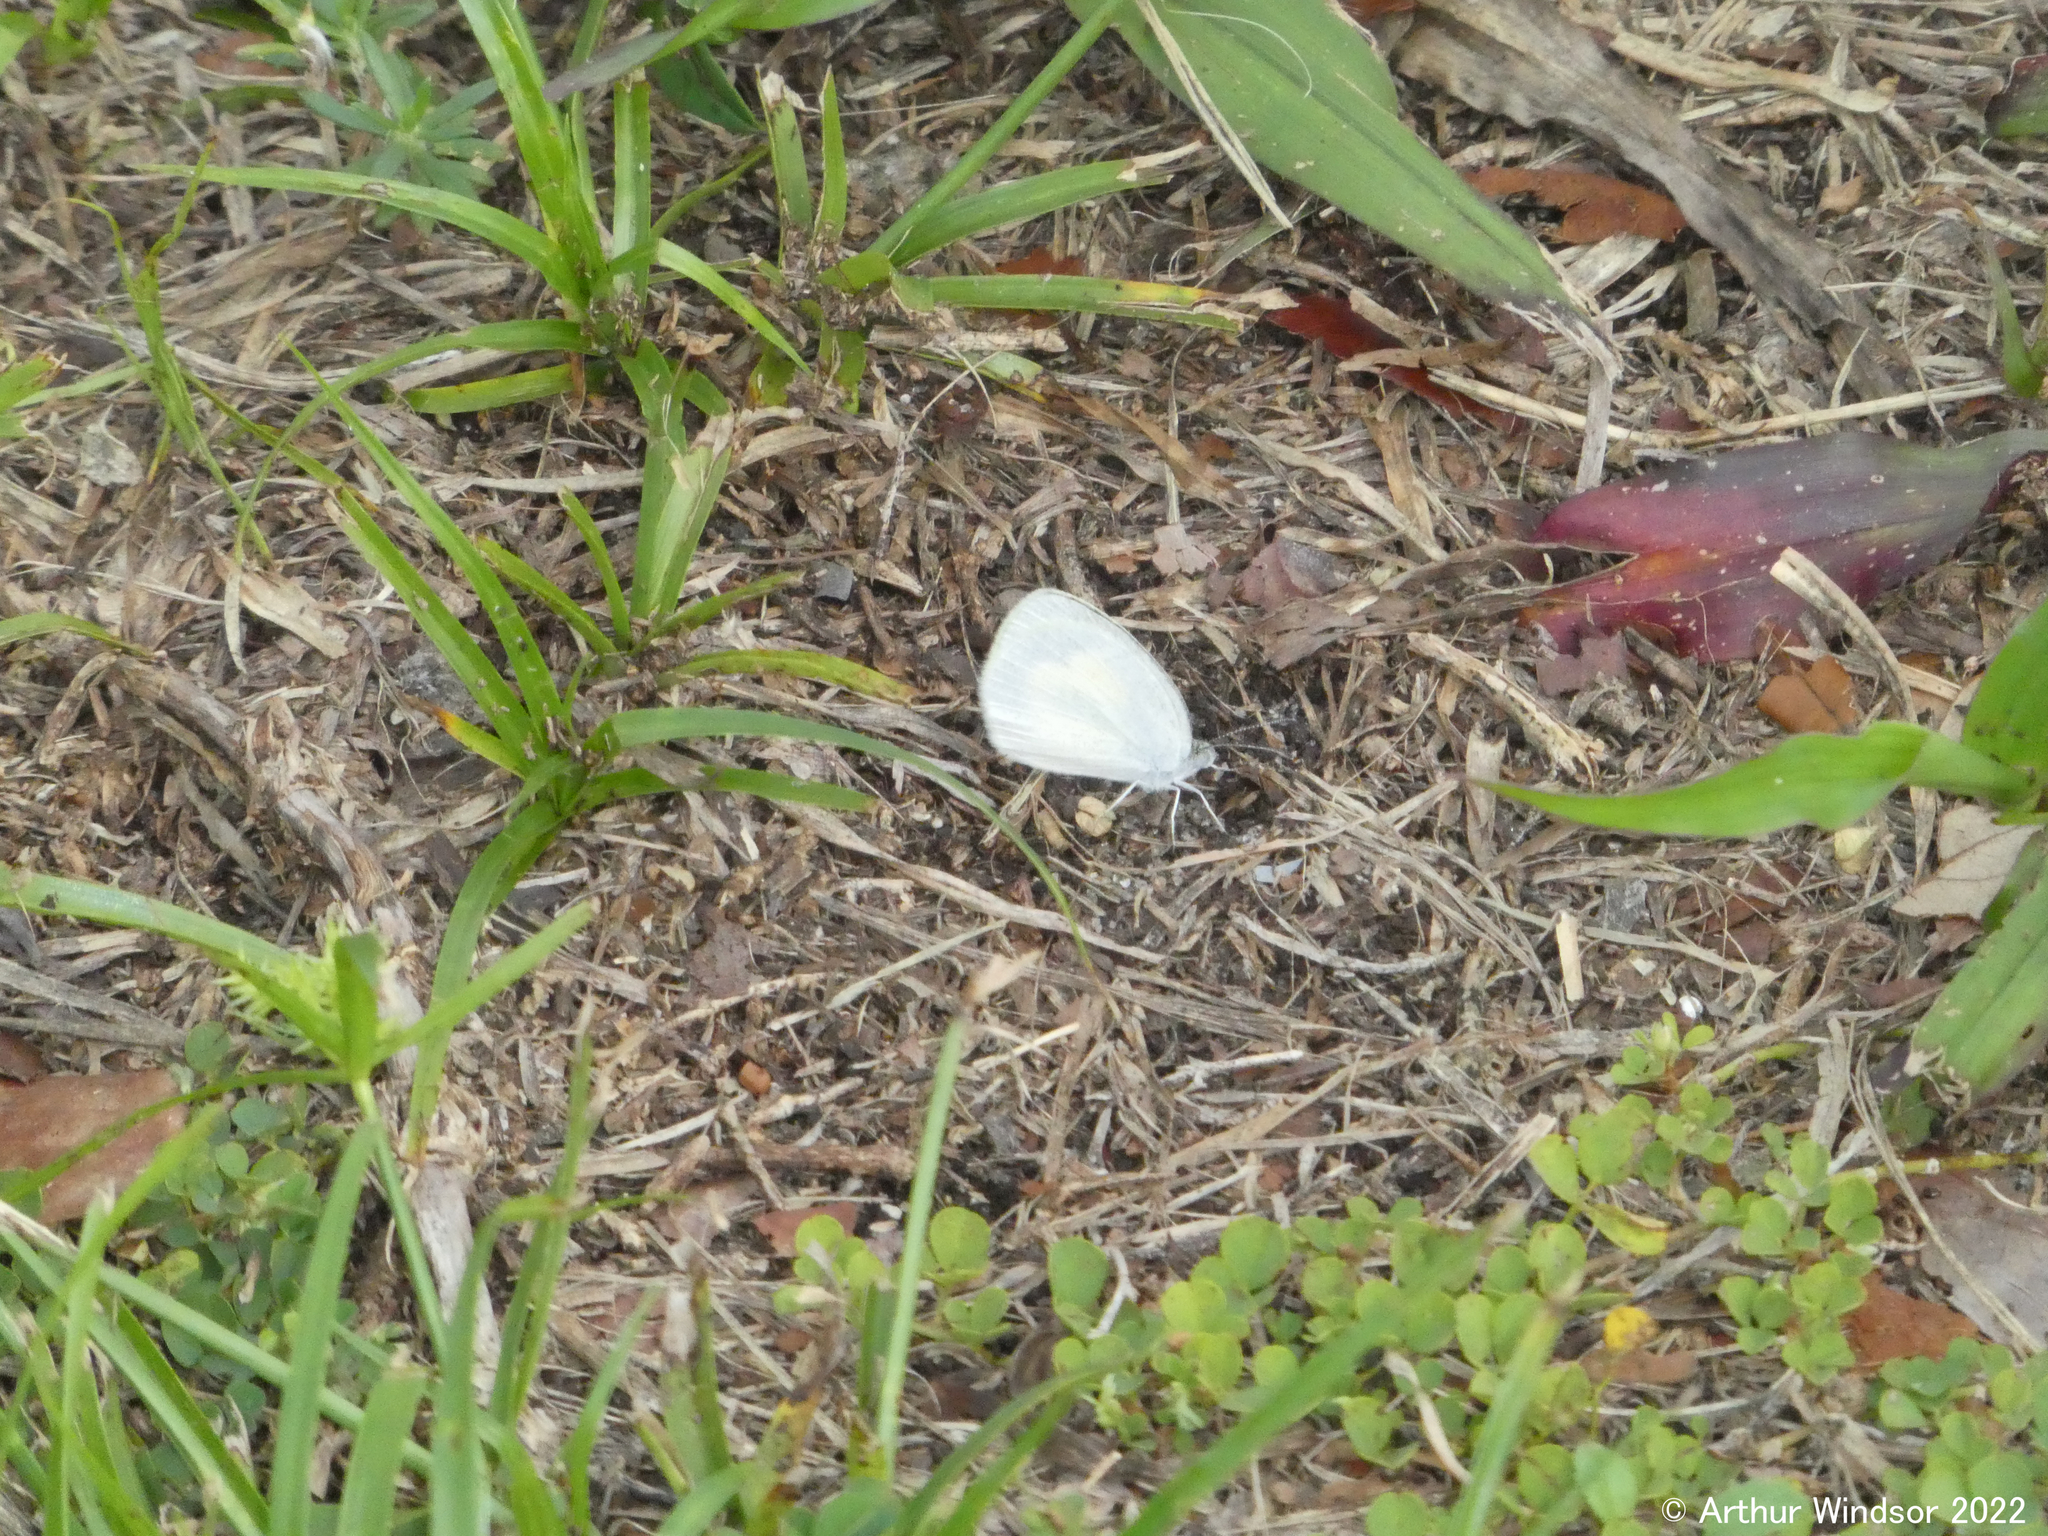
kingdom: Animalia
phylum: Arthropoda
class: Insecta
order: Lepidoptera
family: Pieridae
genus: Eurema
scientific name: Eurema daira
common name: Barred sulphur
